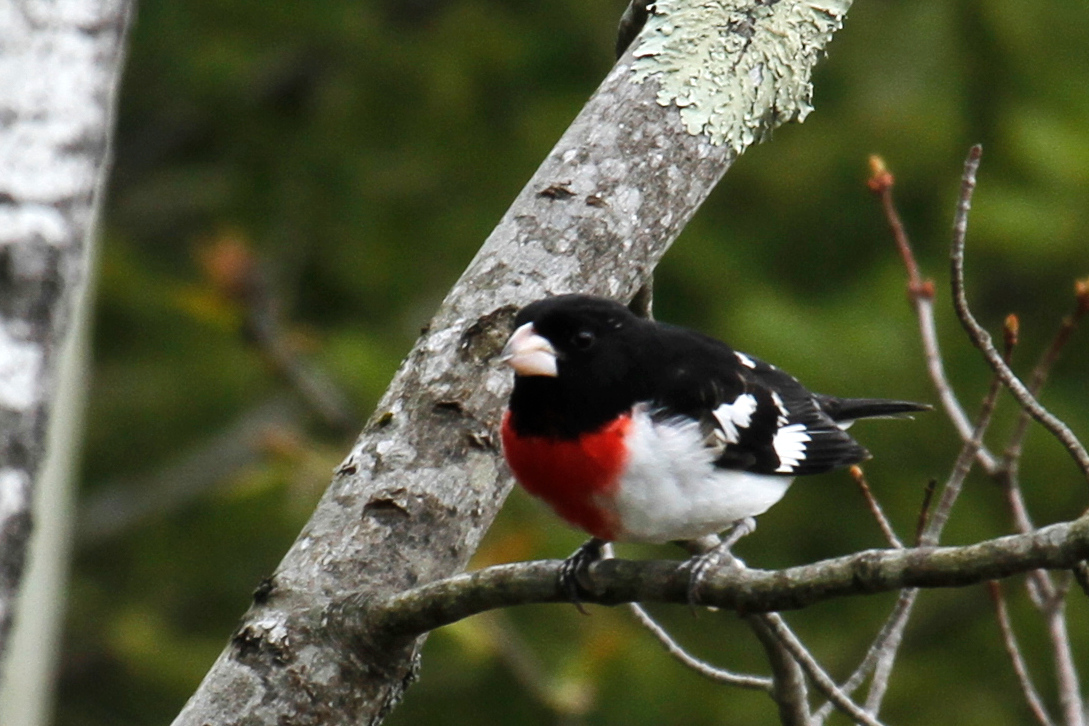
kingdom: Animalia
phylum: Chordata
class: Aves
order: Passeriformes
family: Cardinalidae
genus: Pheucticus
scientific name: Pheucticus ludovicianus
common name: Rose-breasted grosbeak
